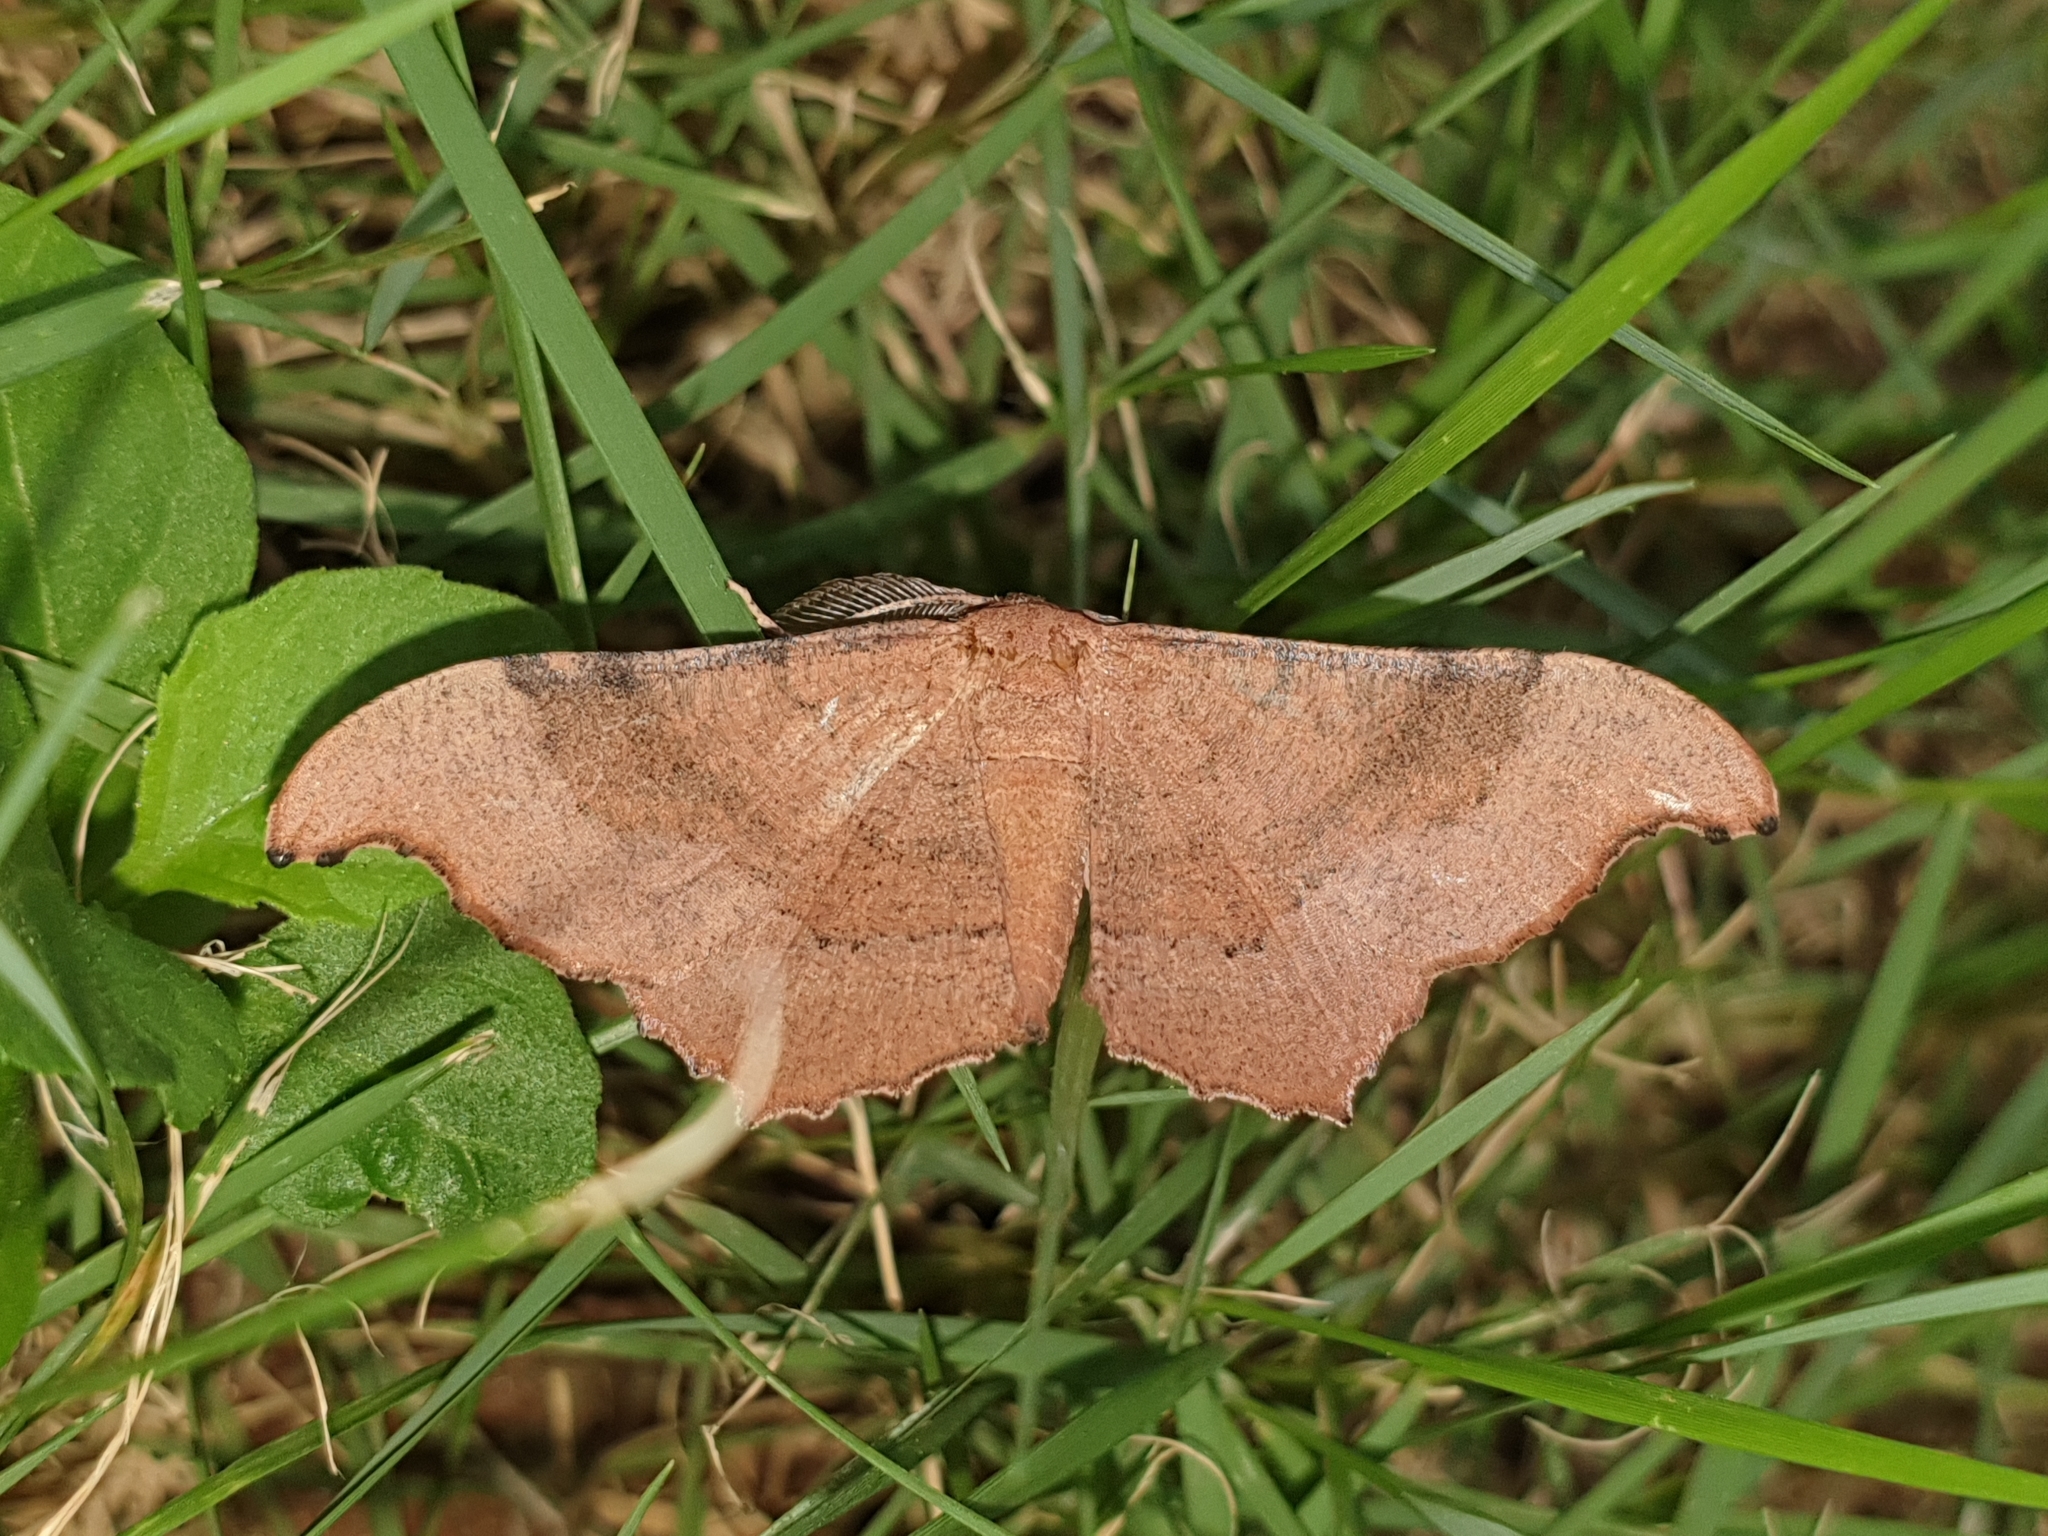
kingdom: Animalia
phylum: Arthropoda
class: Insecta
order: Lepidoptera
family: Geometridae
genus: Hyposidra
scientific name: Hyposidra talaca
